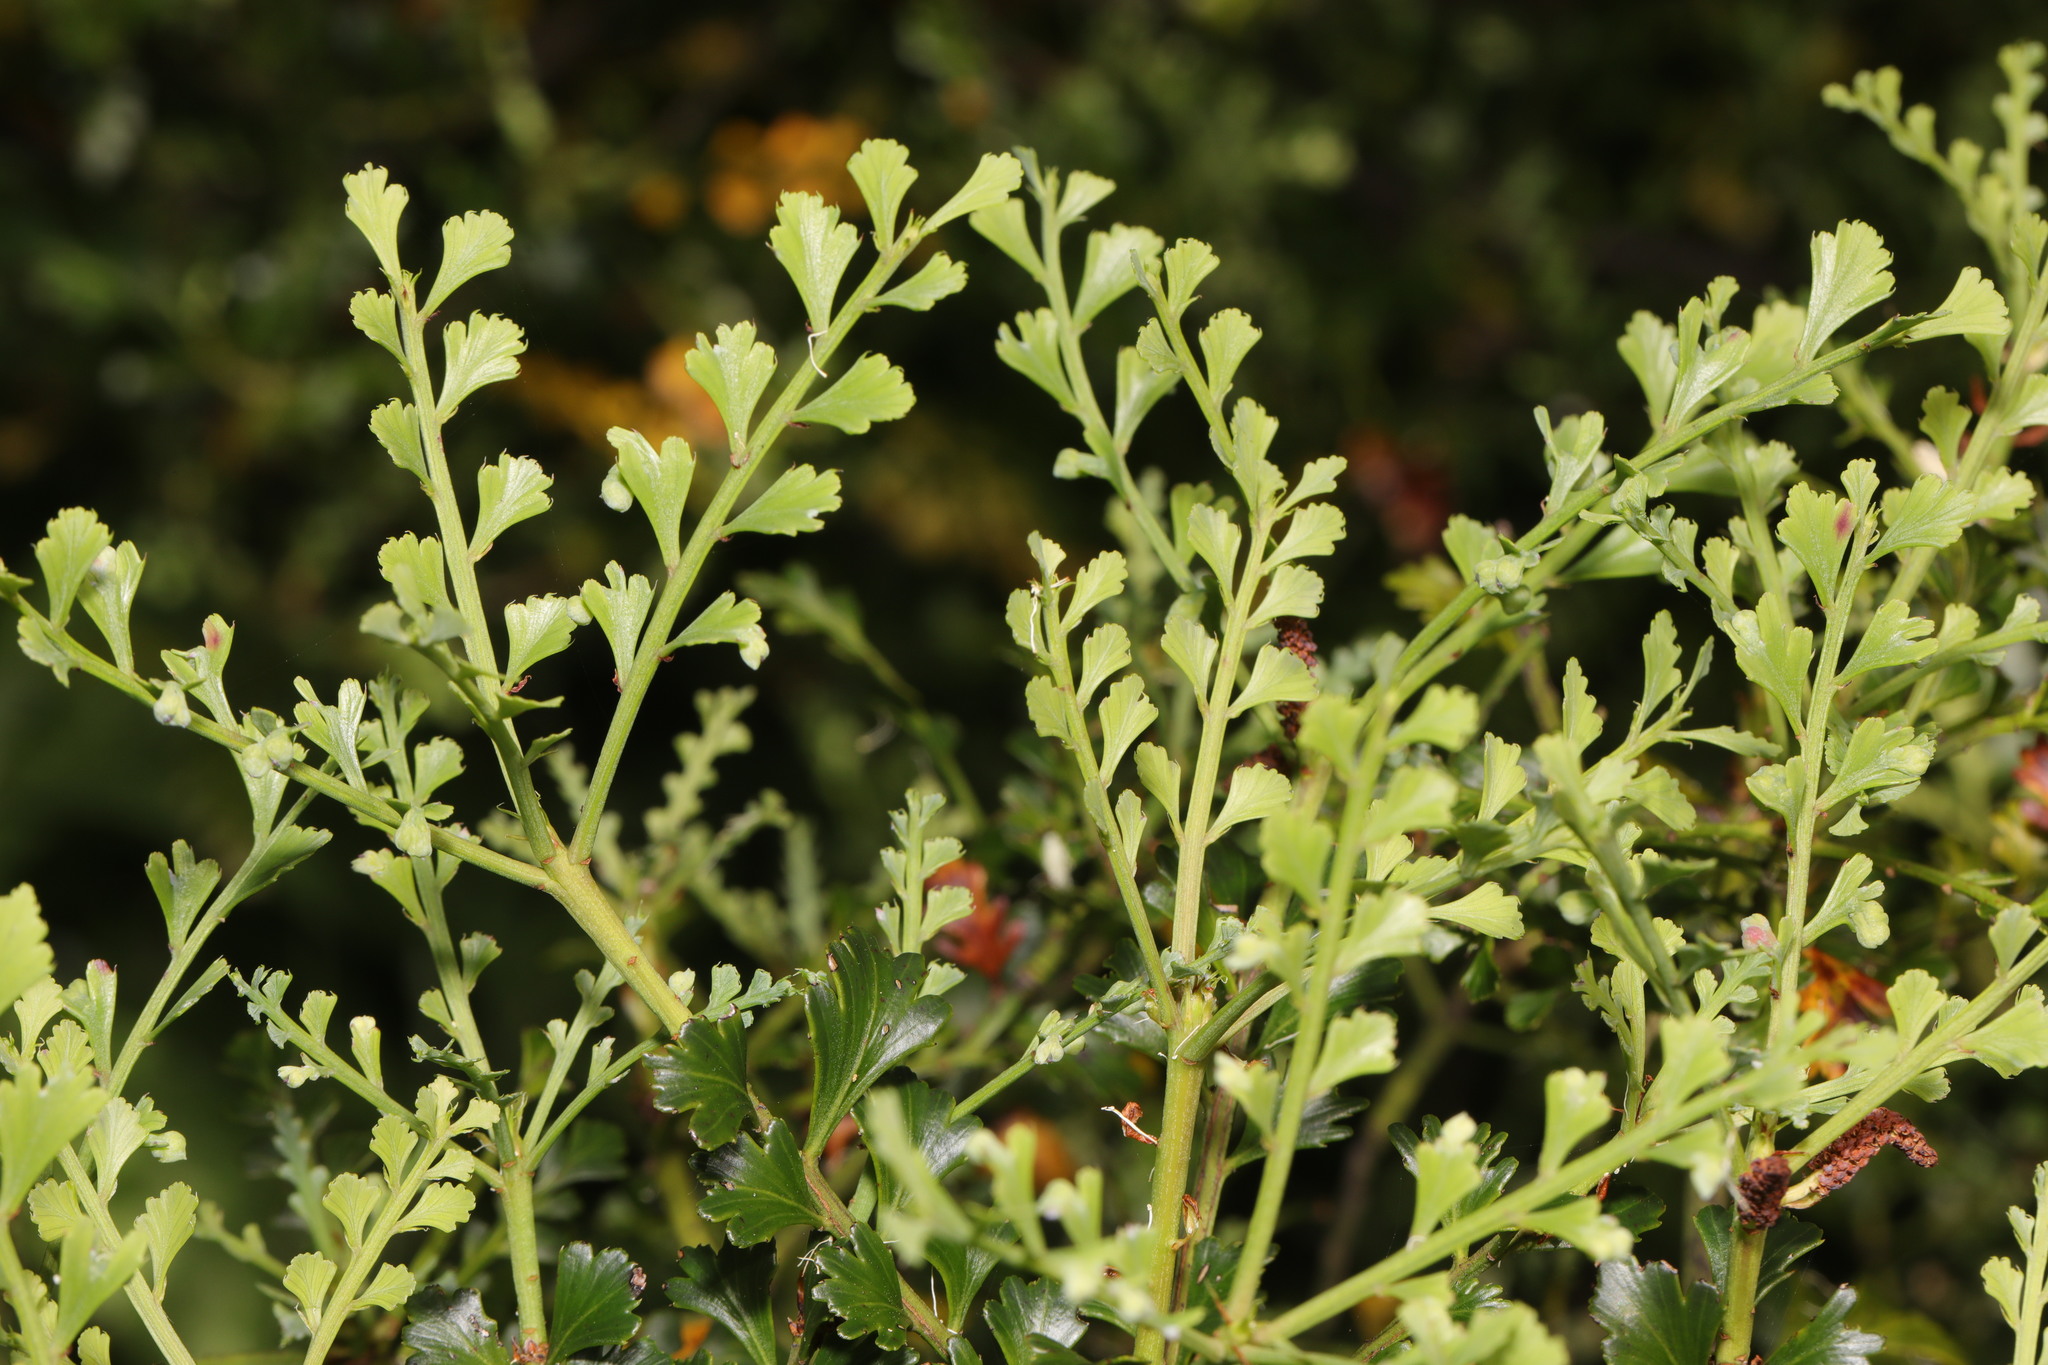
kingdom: Plantae
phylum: Tracheophyta
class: Polypodiopsida
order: Polypodiales
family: Aspleniaceae
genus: Asplenium
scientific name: Asplenium ruta-muraria
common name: Wall-rue
